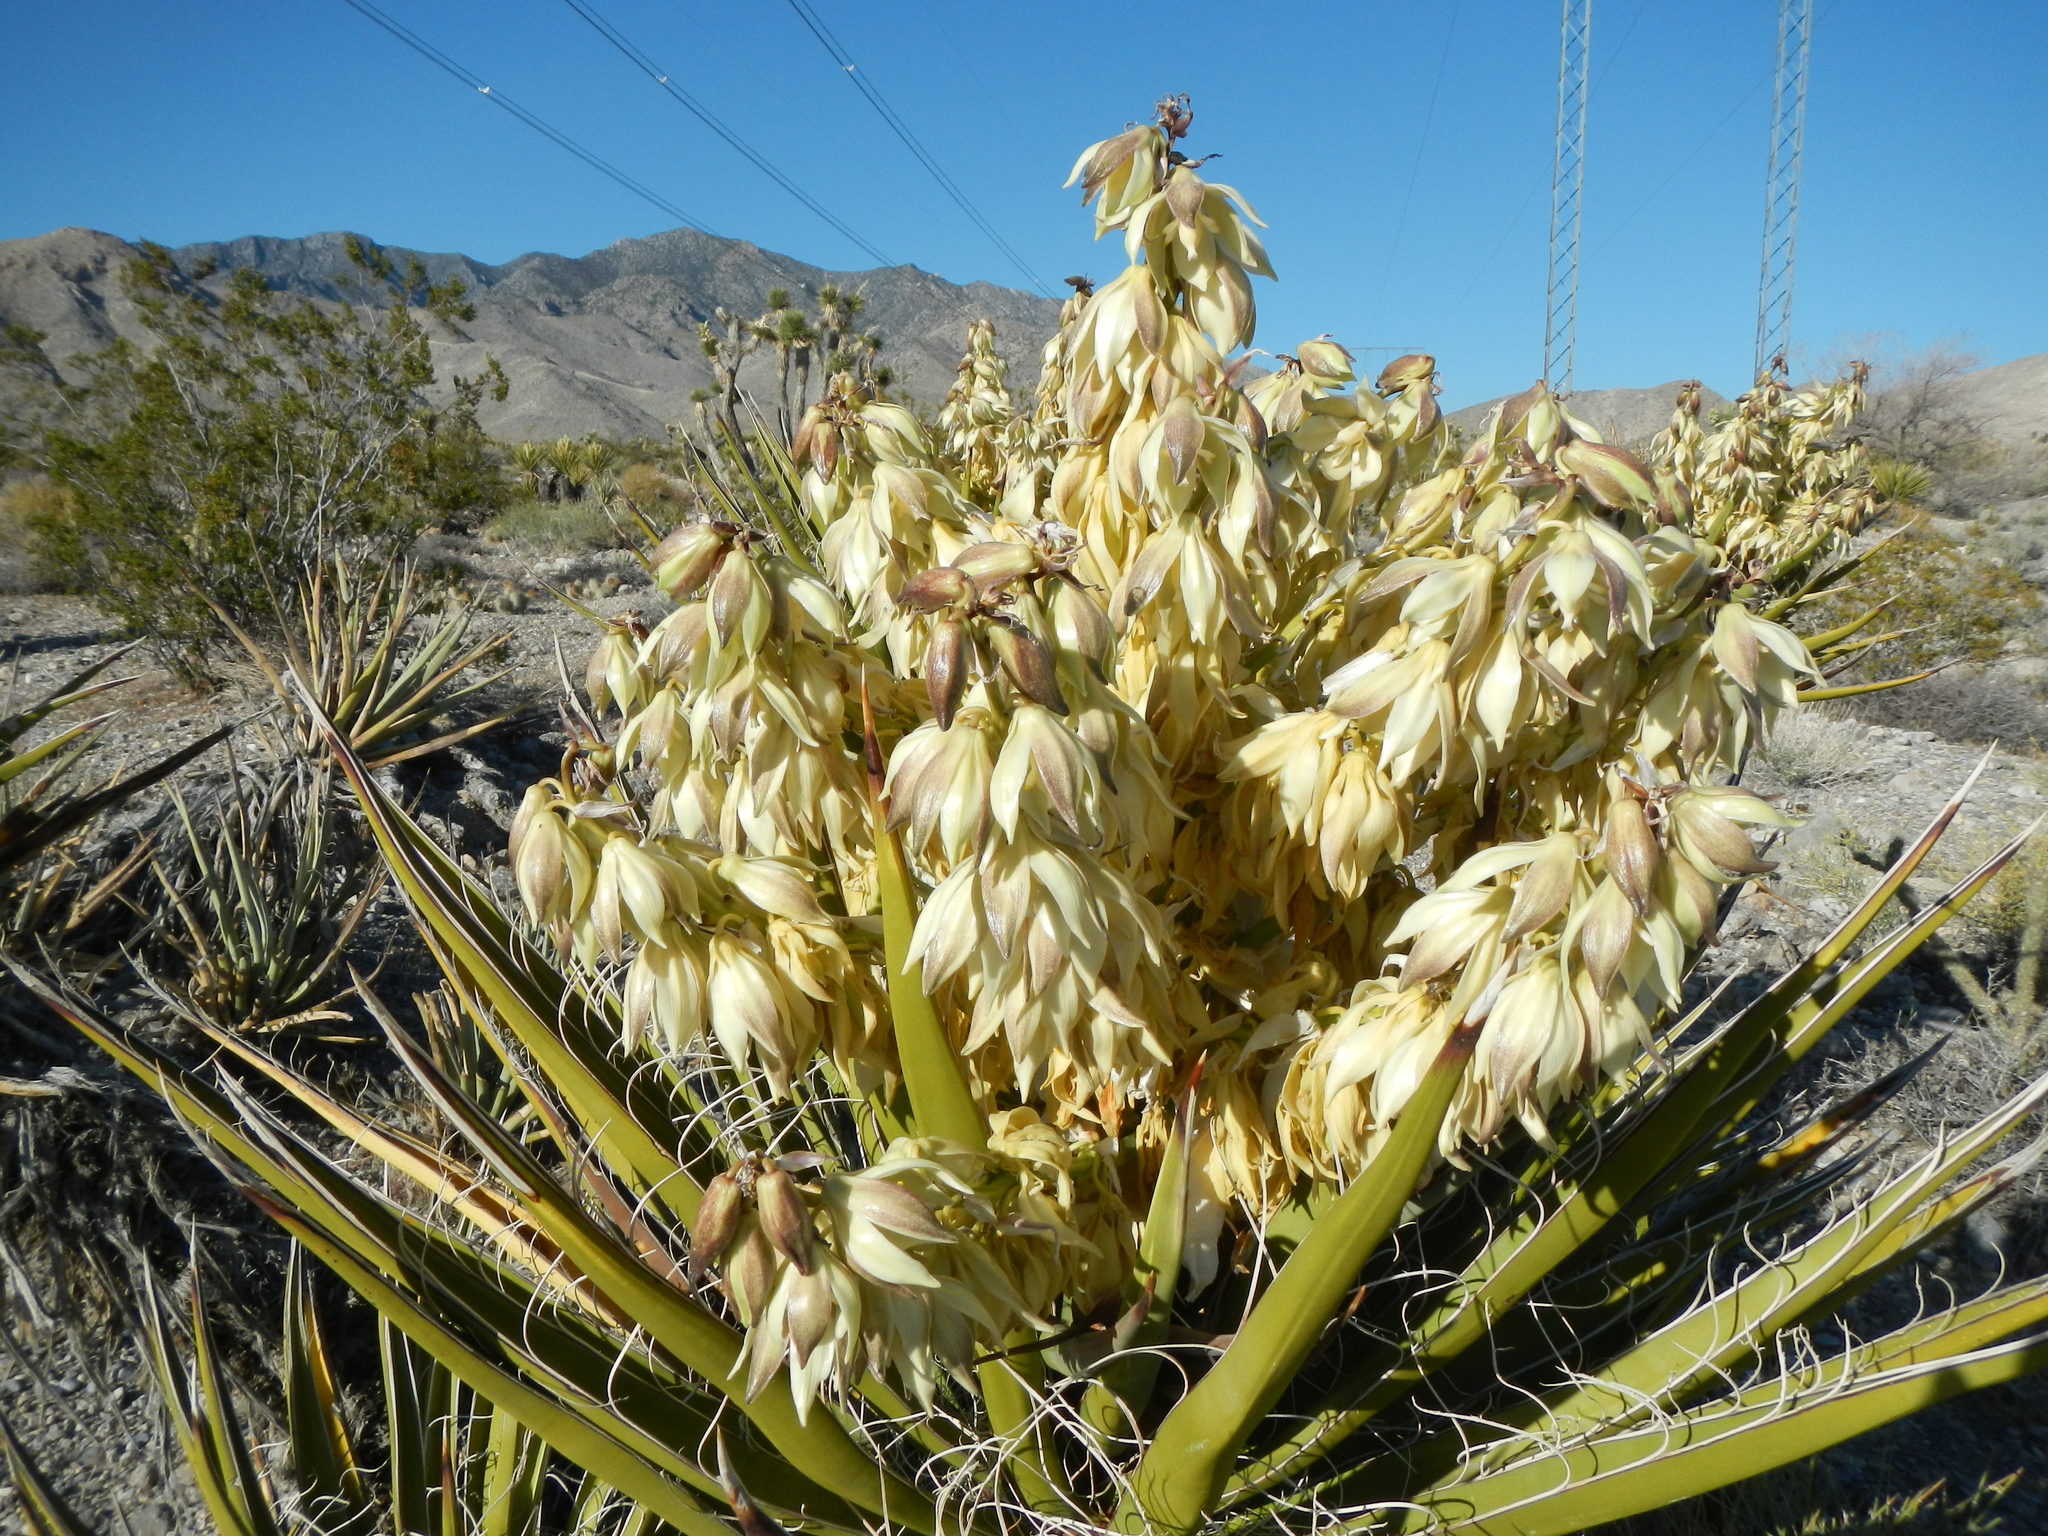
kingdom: Plantae
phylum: Tracheophyta
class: Liliopsida
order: Asparagales
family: Asparagaceae
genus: Yucca
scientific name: Yucca schidigera
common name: Mojave yucca
